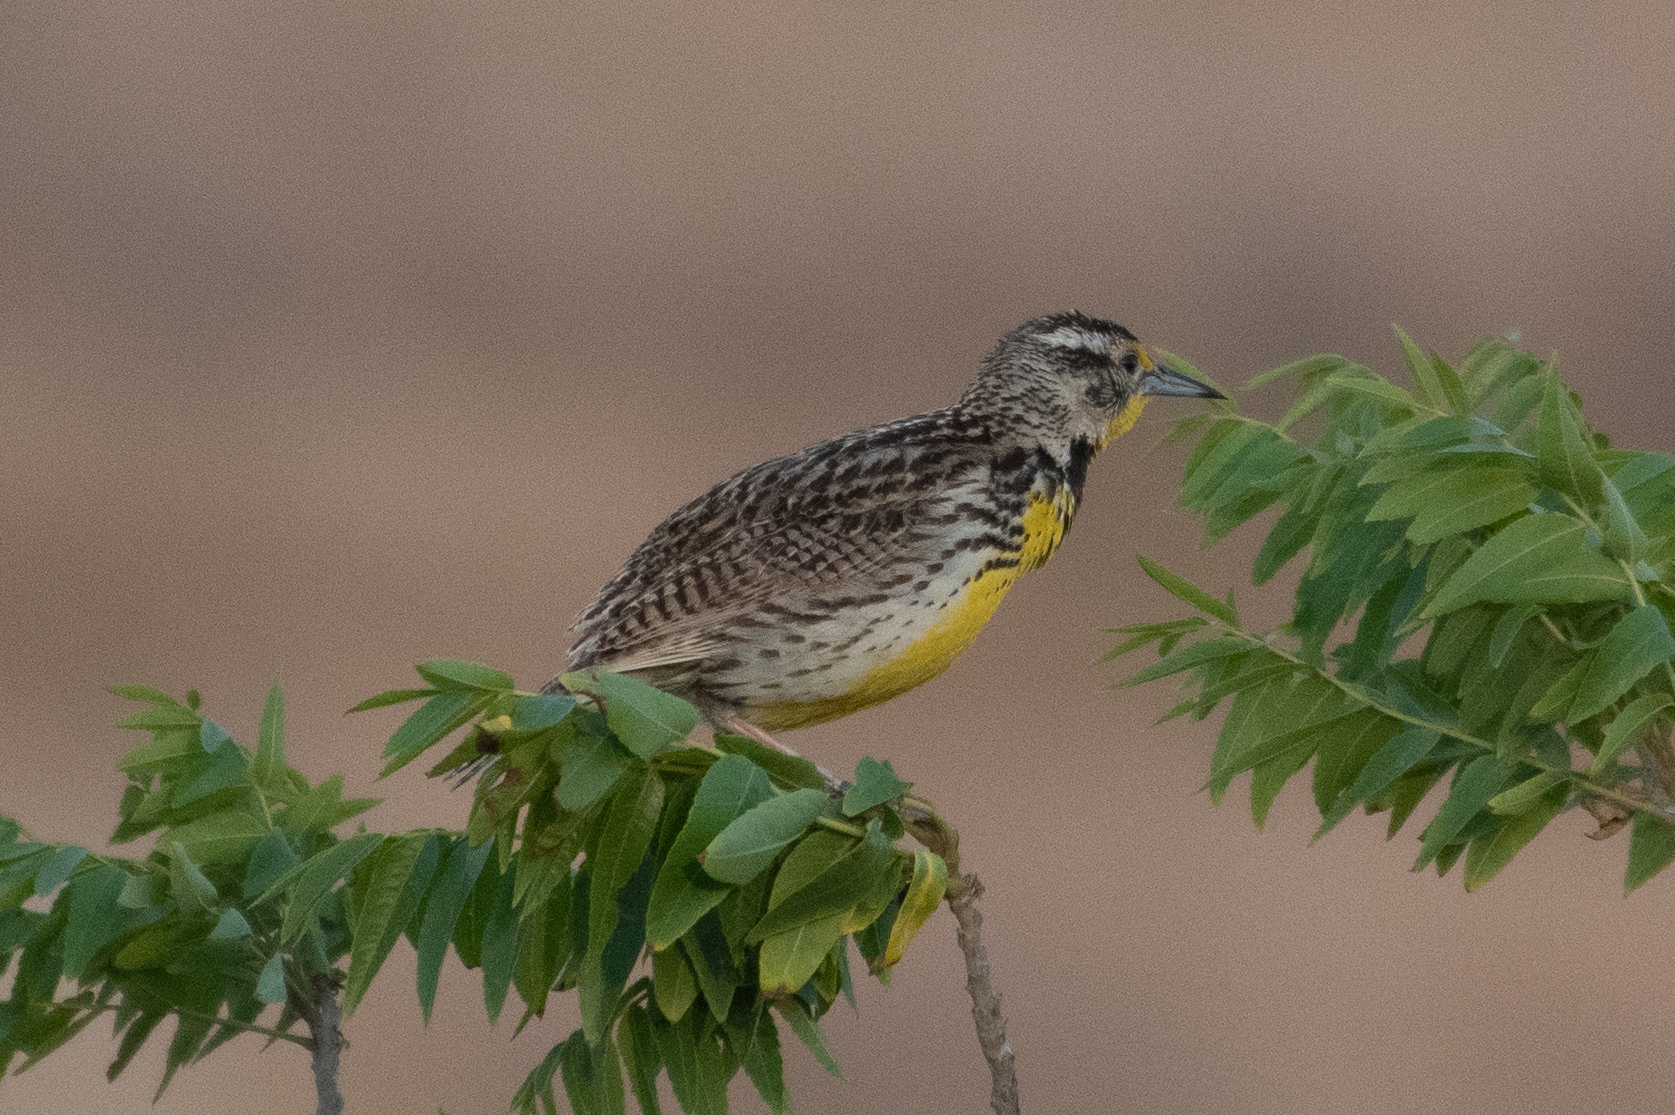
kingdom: Animalia
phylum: Chordata
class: Aves
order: Passeriformes
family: Icteridae
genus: Sturnella
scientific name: Sturnella neglecta
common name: Western meadowlark
